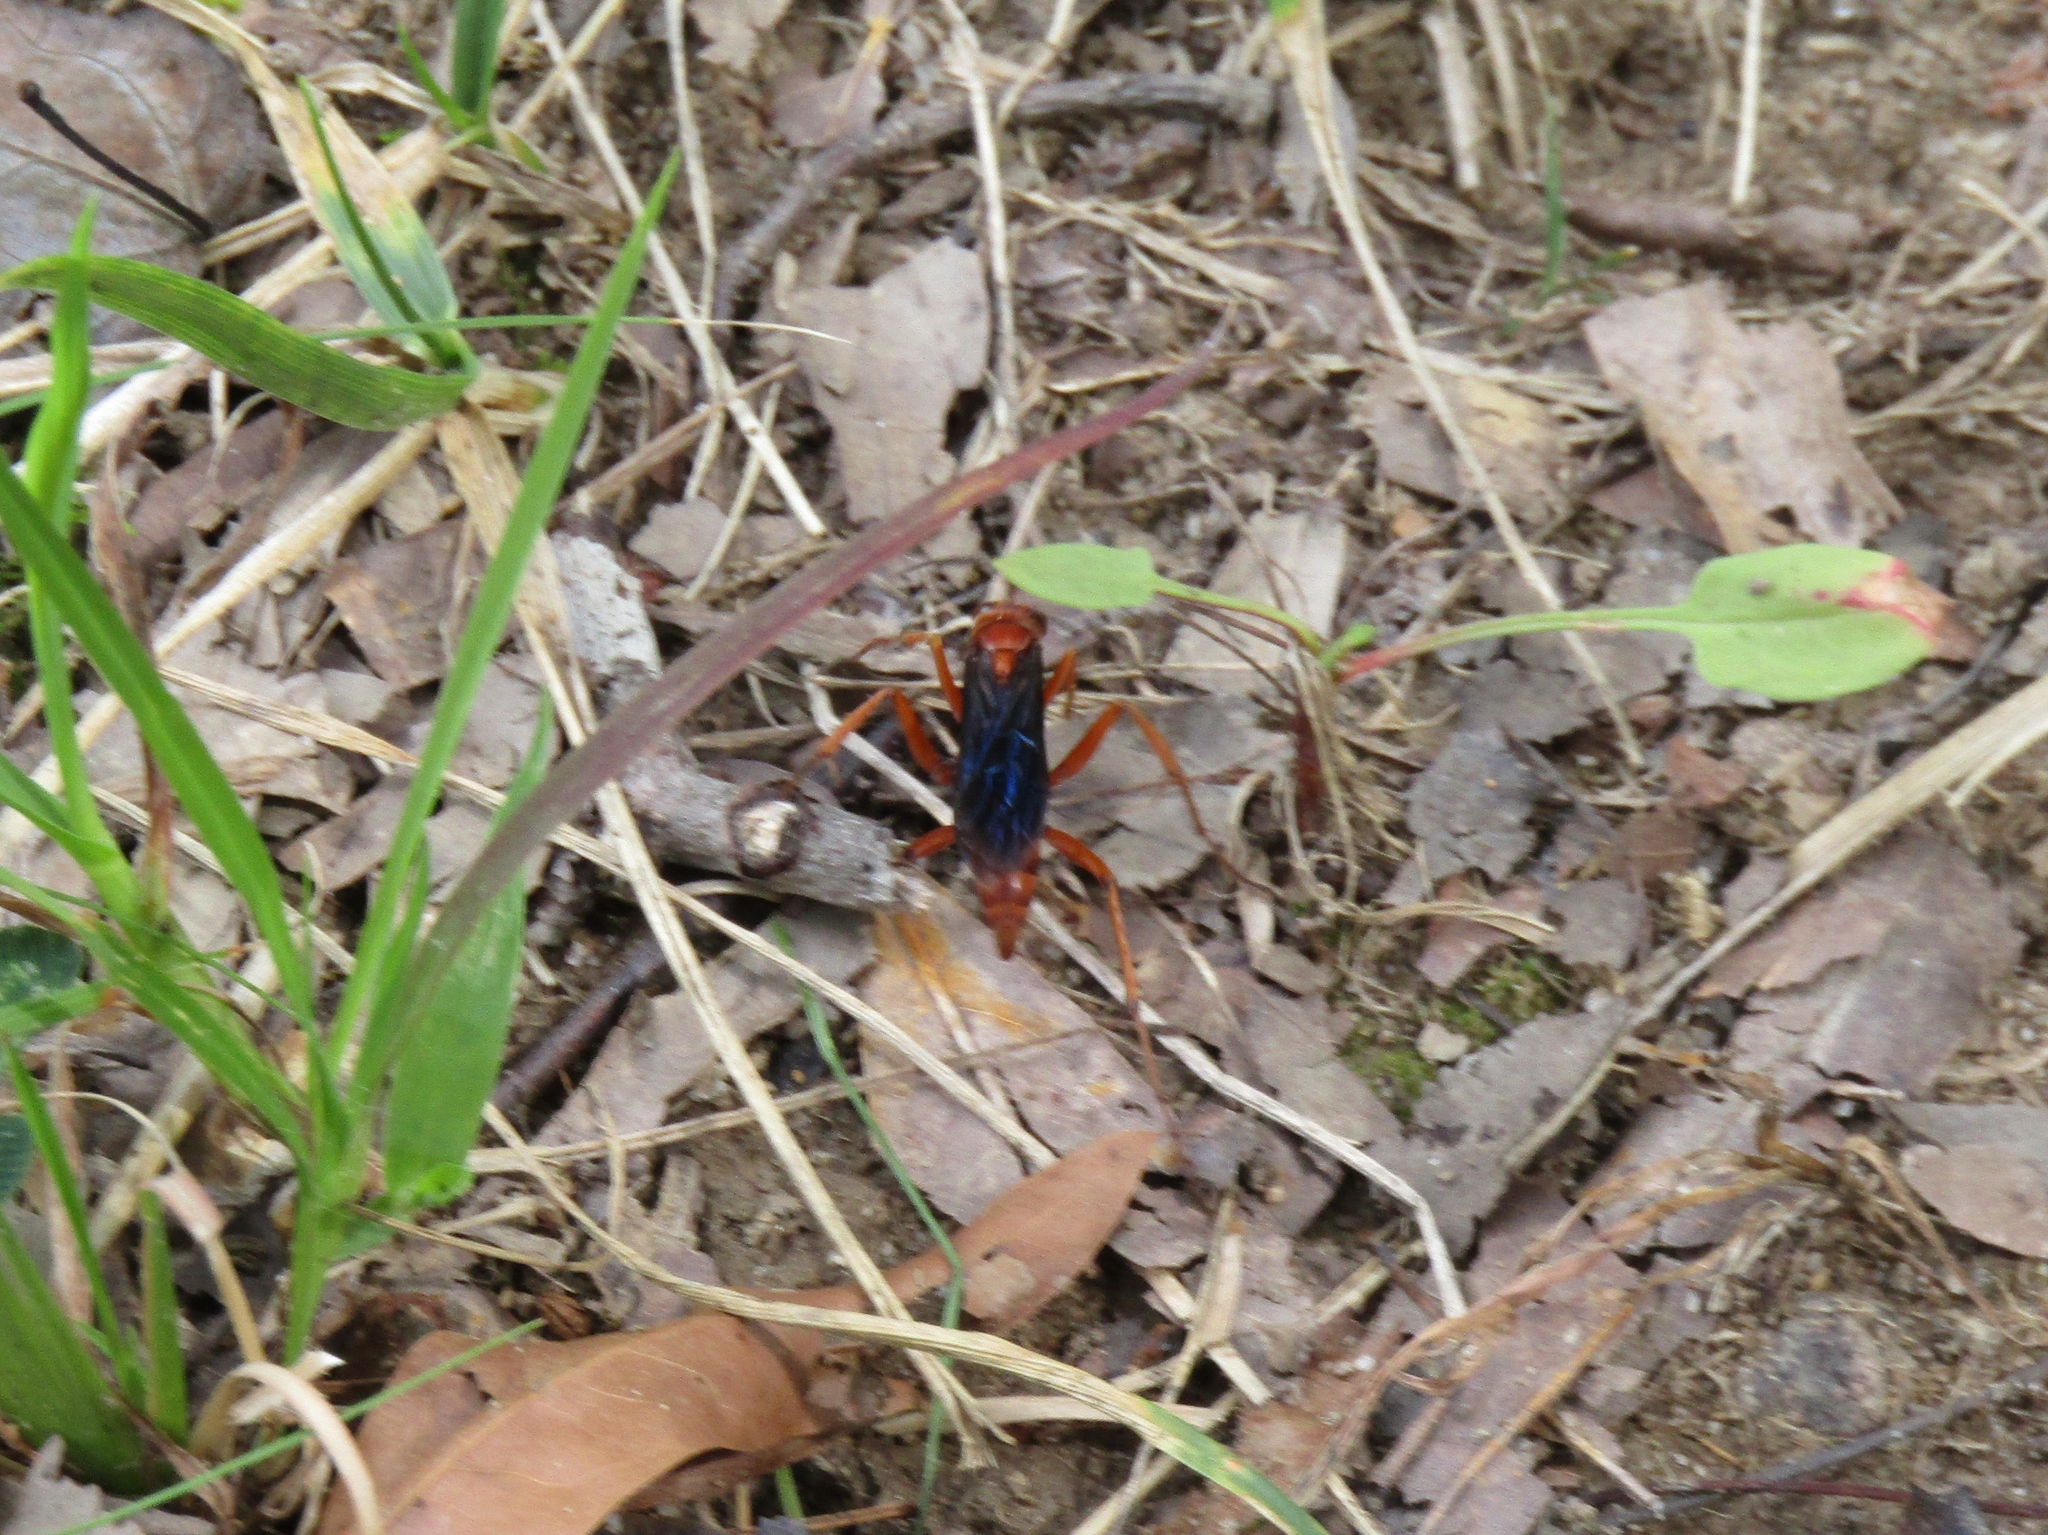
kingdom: Animalia
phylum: Arthropoda
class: Insecta
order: Hymenoptera
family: Pompilidae
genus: Tachypompilus
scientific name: Tachypompilus ferrugineus
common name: Rusty spider wasp
